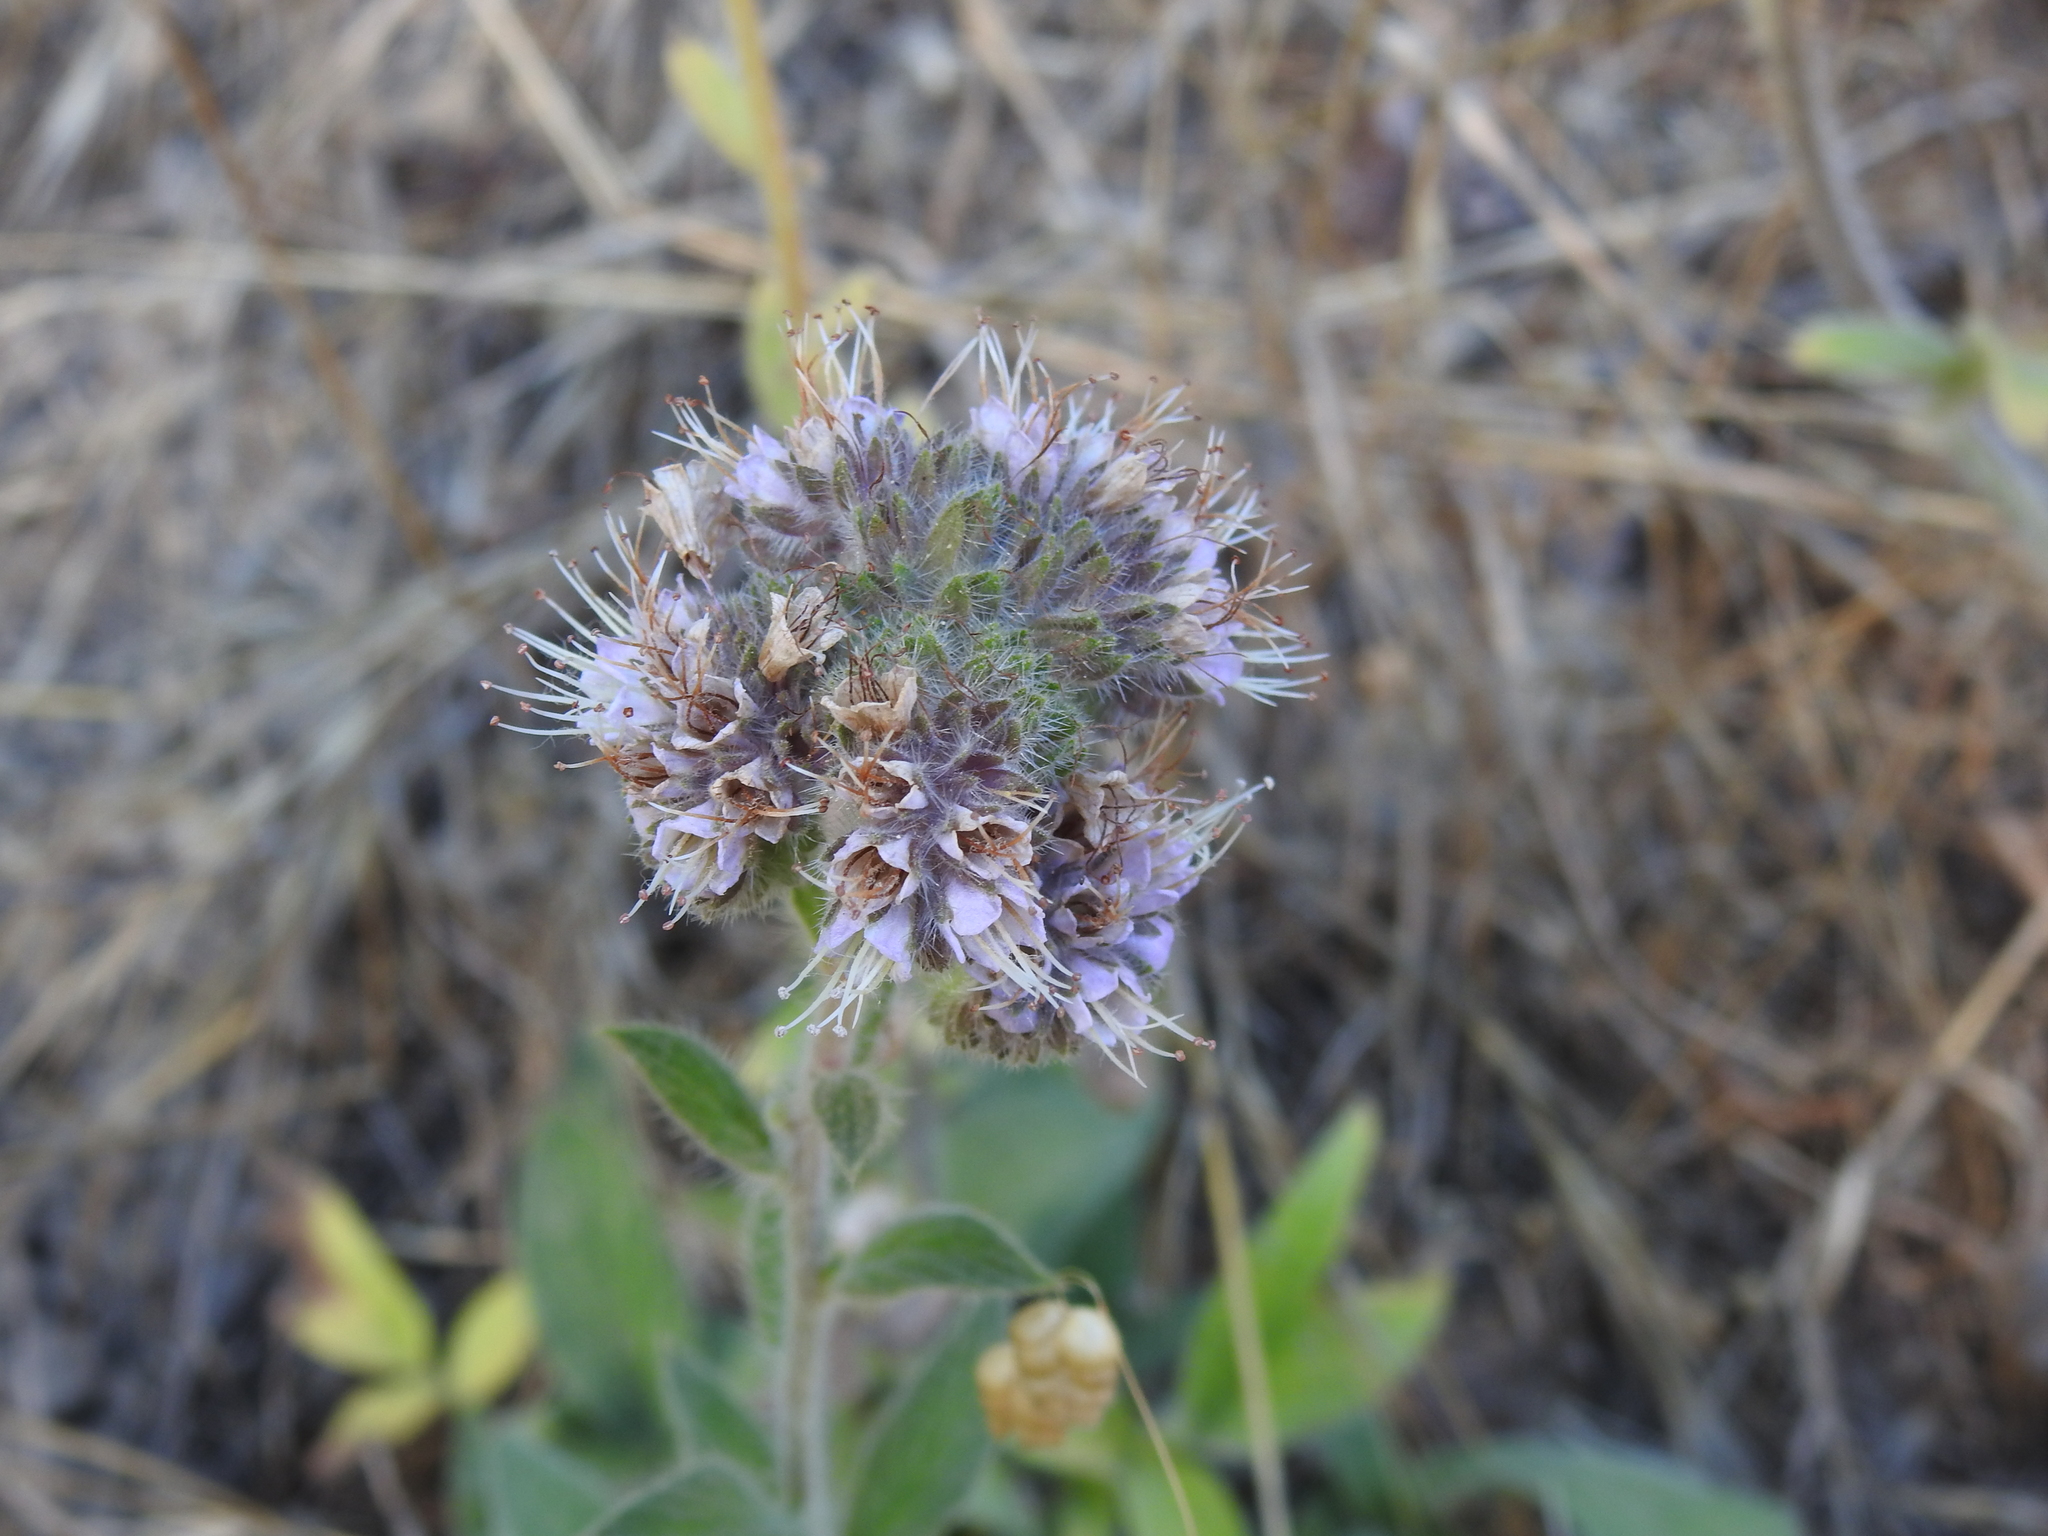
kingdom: Plantae
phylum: Tracheophyta
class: Magnoliopsida
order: Boraginales
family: Hydrophyllaceae
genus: Phacelia
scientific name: Phacelia californica
